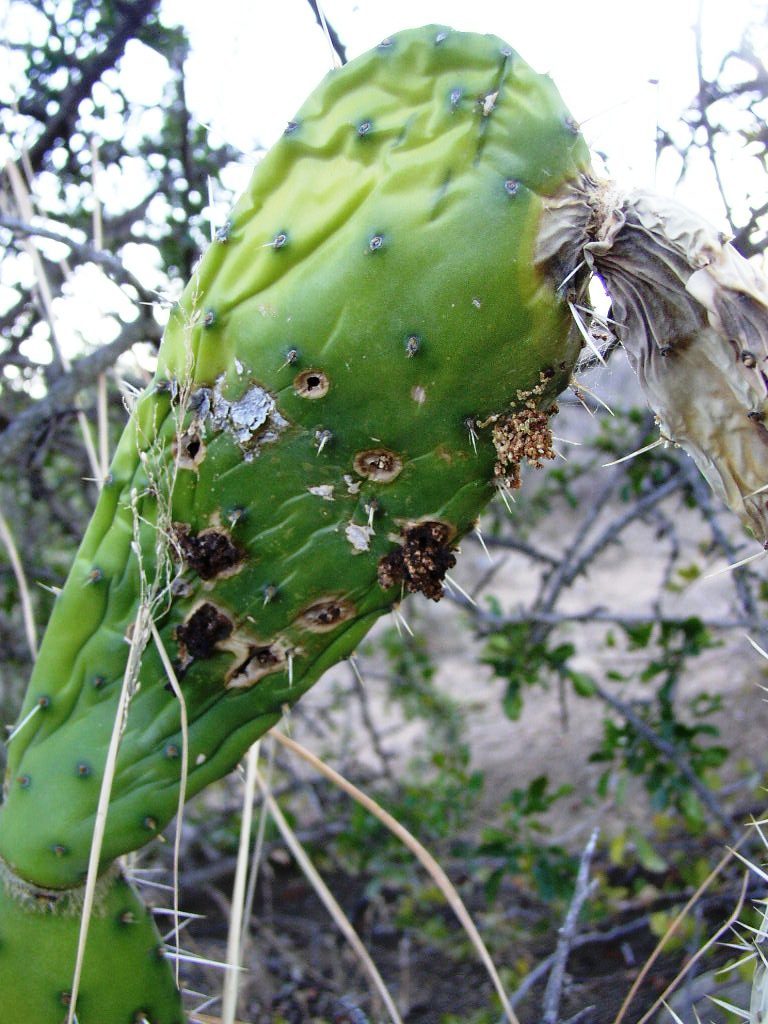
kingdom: Animalia
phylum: Arthropoda
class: Insecta
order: Lepidoptera
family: Pyralidae
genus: Cactoblastis
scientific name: Cactoblastis cactorum
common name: Cactus moth
